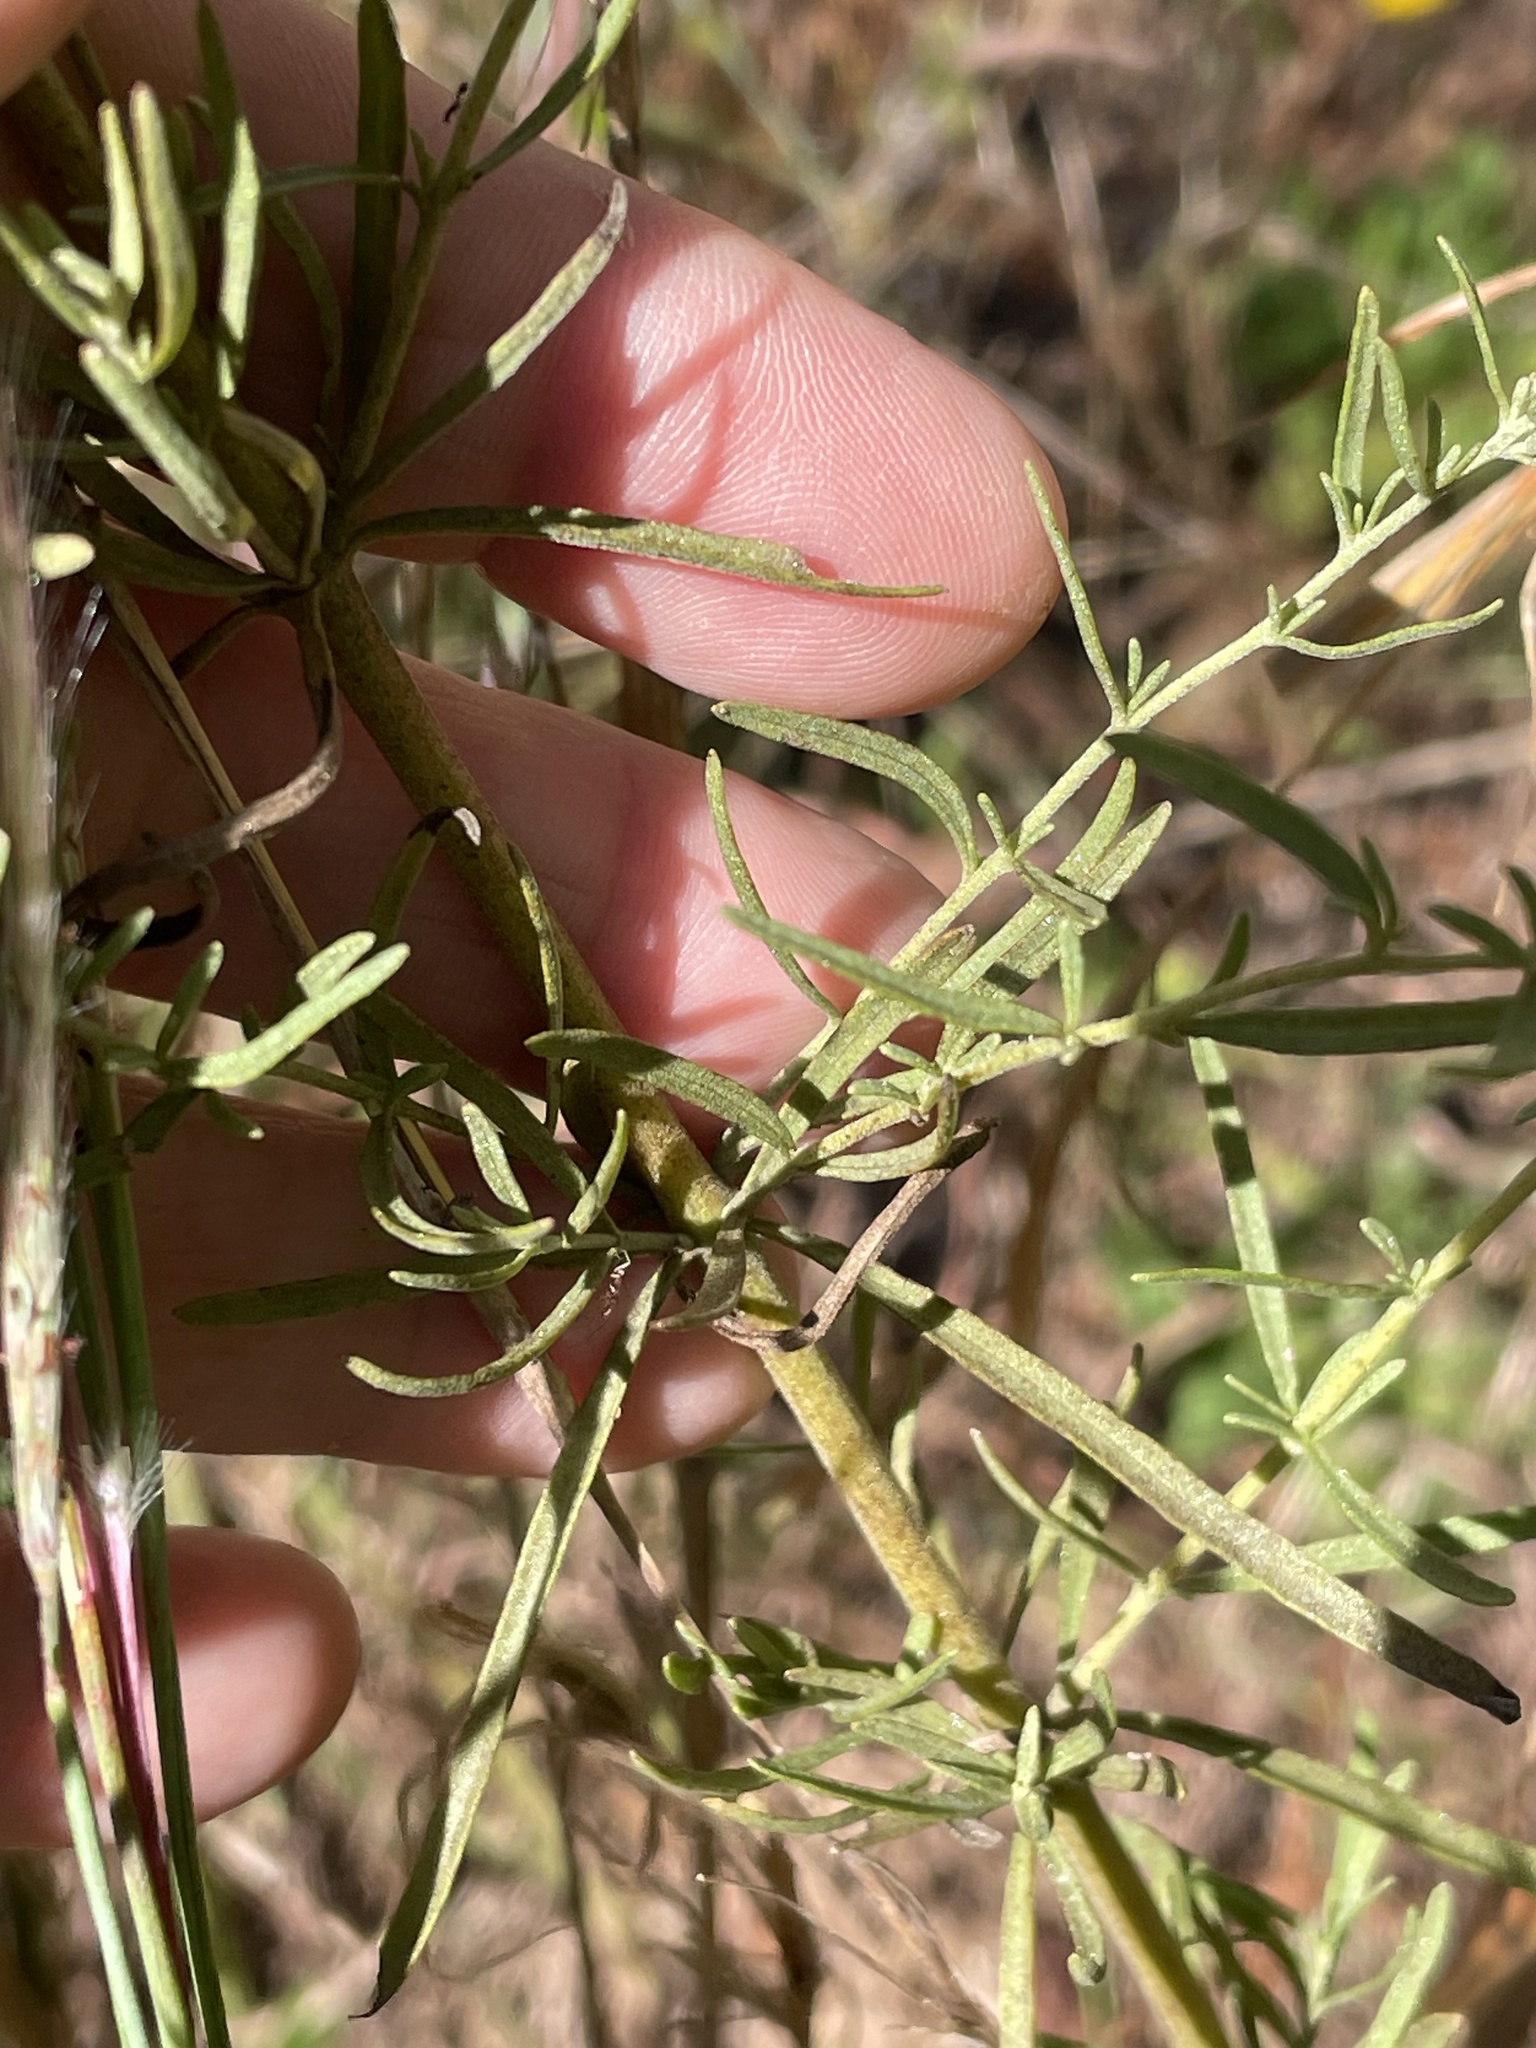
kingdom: Plantae
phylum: Tracheophyta
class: Magnoliopsida
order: Asterales
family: Asteraceae
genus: Eupatorium
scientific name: Eupatorium hyssopifolium
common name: Hyssop-leaf thoroughwort
